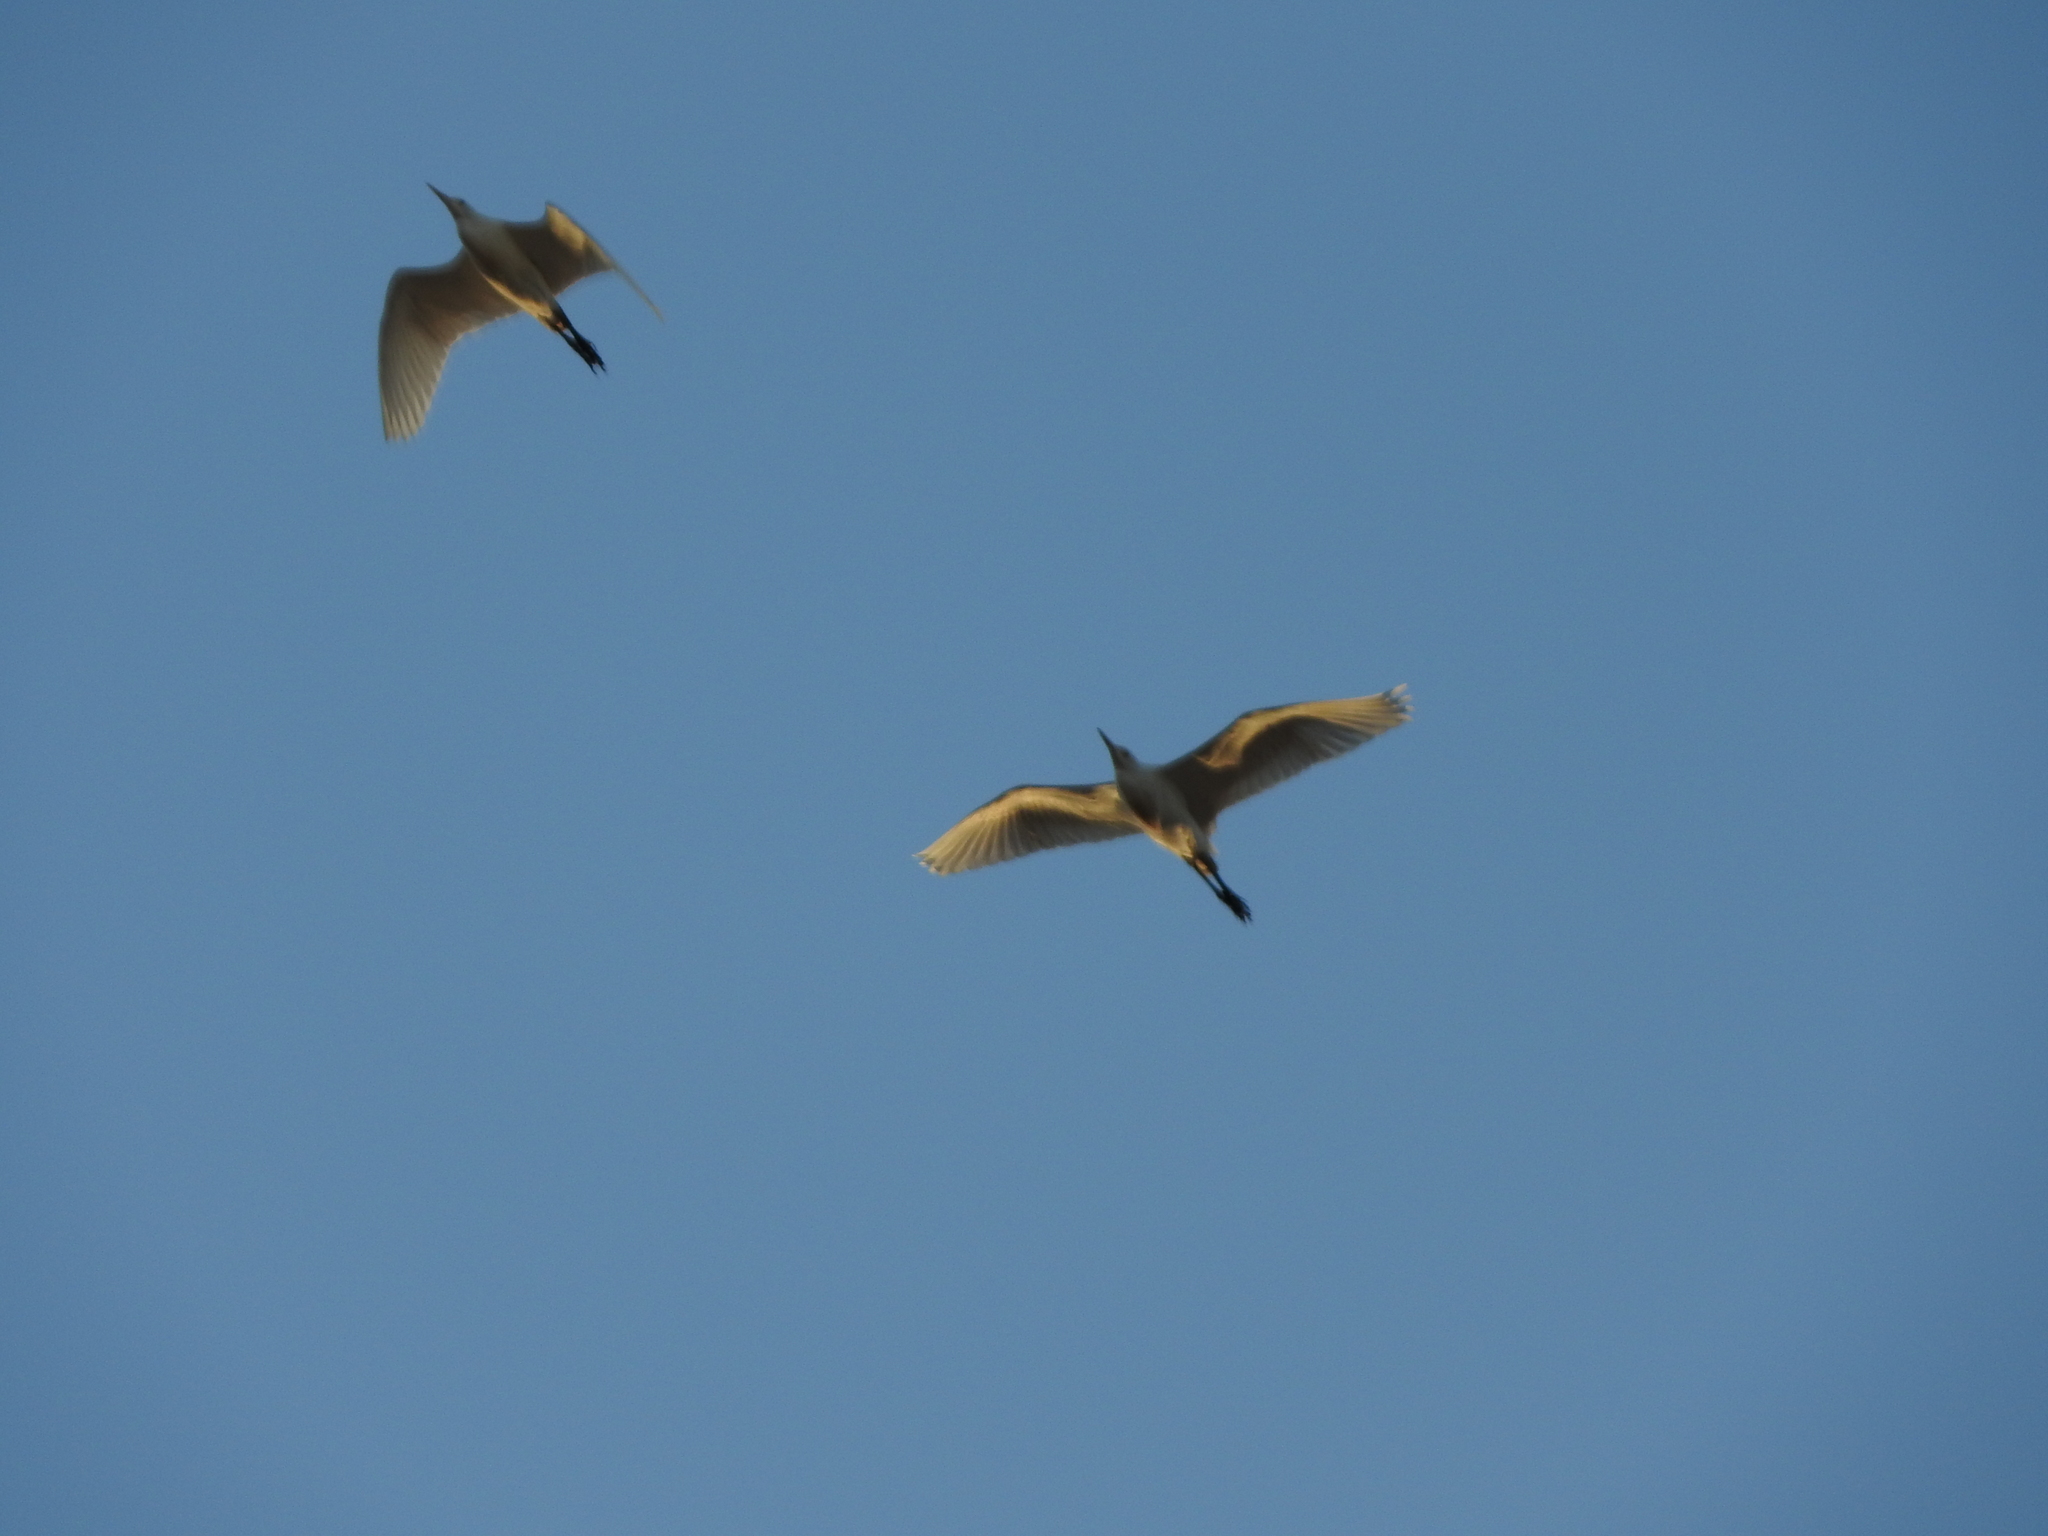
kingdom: Animalia
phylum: Chordata
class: Aves
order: Pelecaniformes
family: Ardeidae
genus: Bubulcus
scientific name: Bubulcus ibis
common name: Cattle egret
